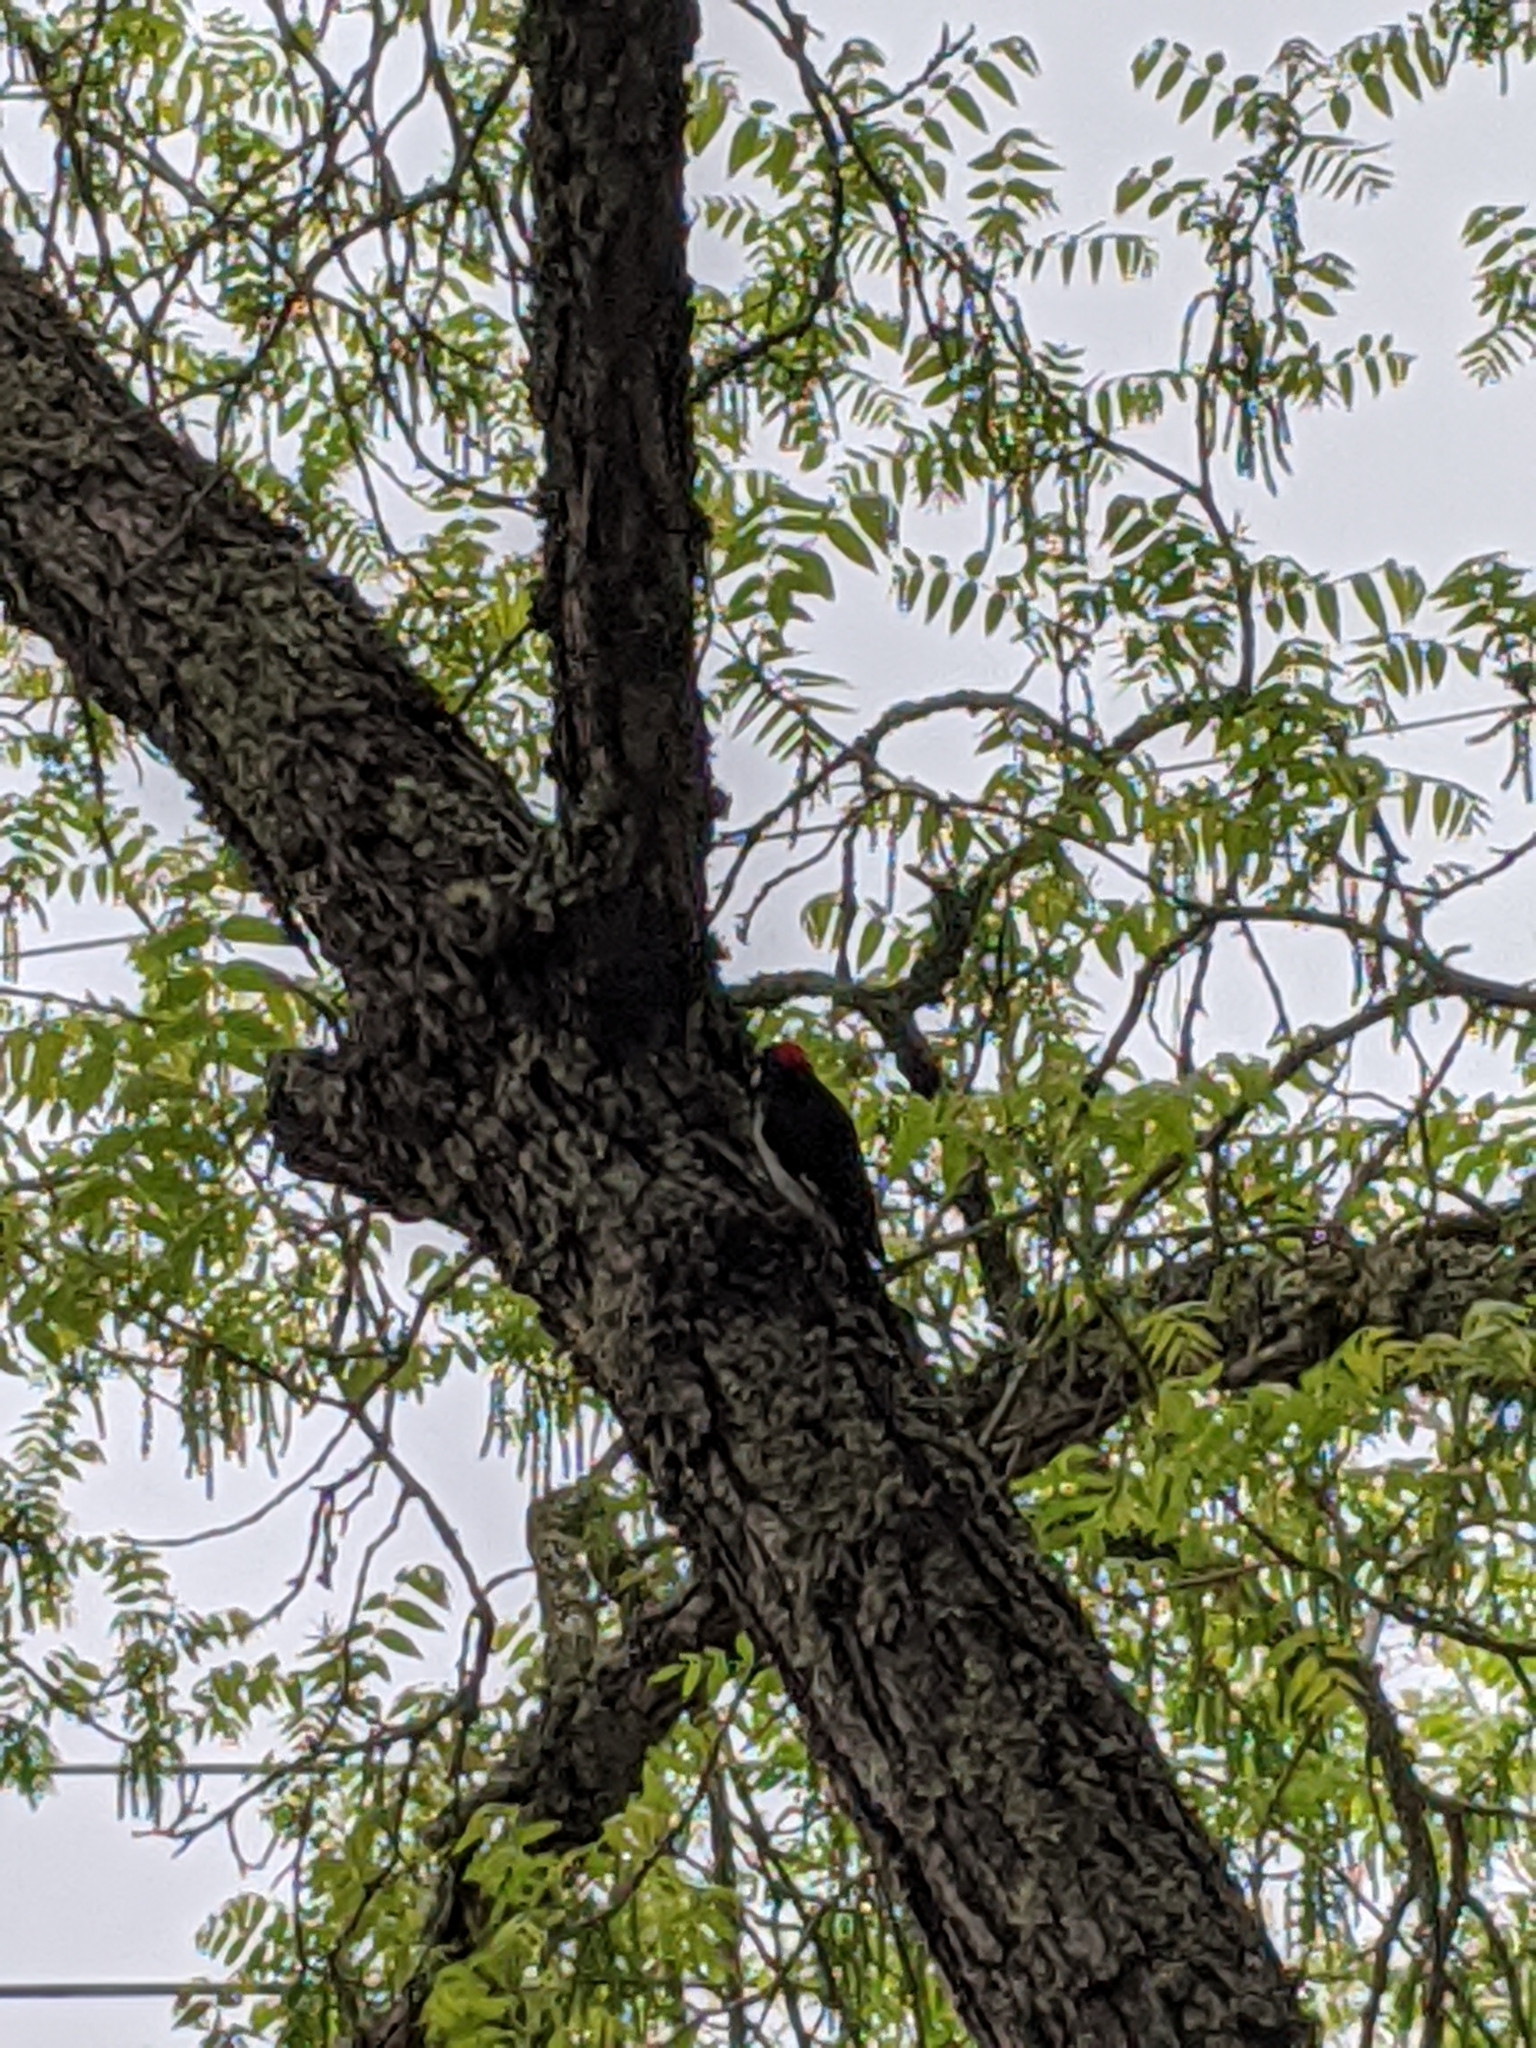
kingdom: Animalia
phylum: Chordata
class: Aves
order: Piciformes
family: Picidae
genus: Melanerpes
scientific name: Melanerpes formicivorus
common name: Acorn woodpecker
